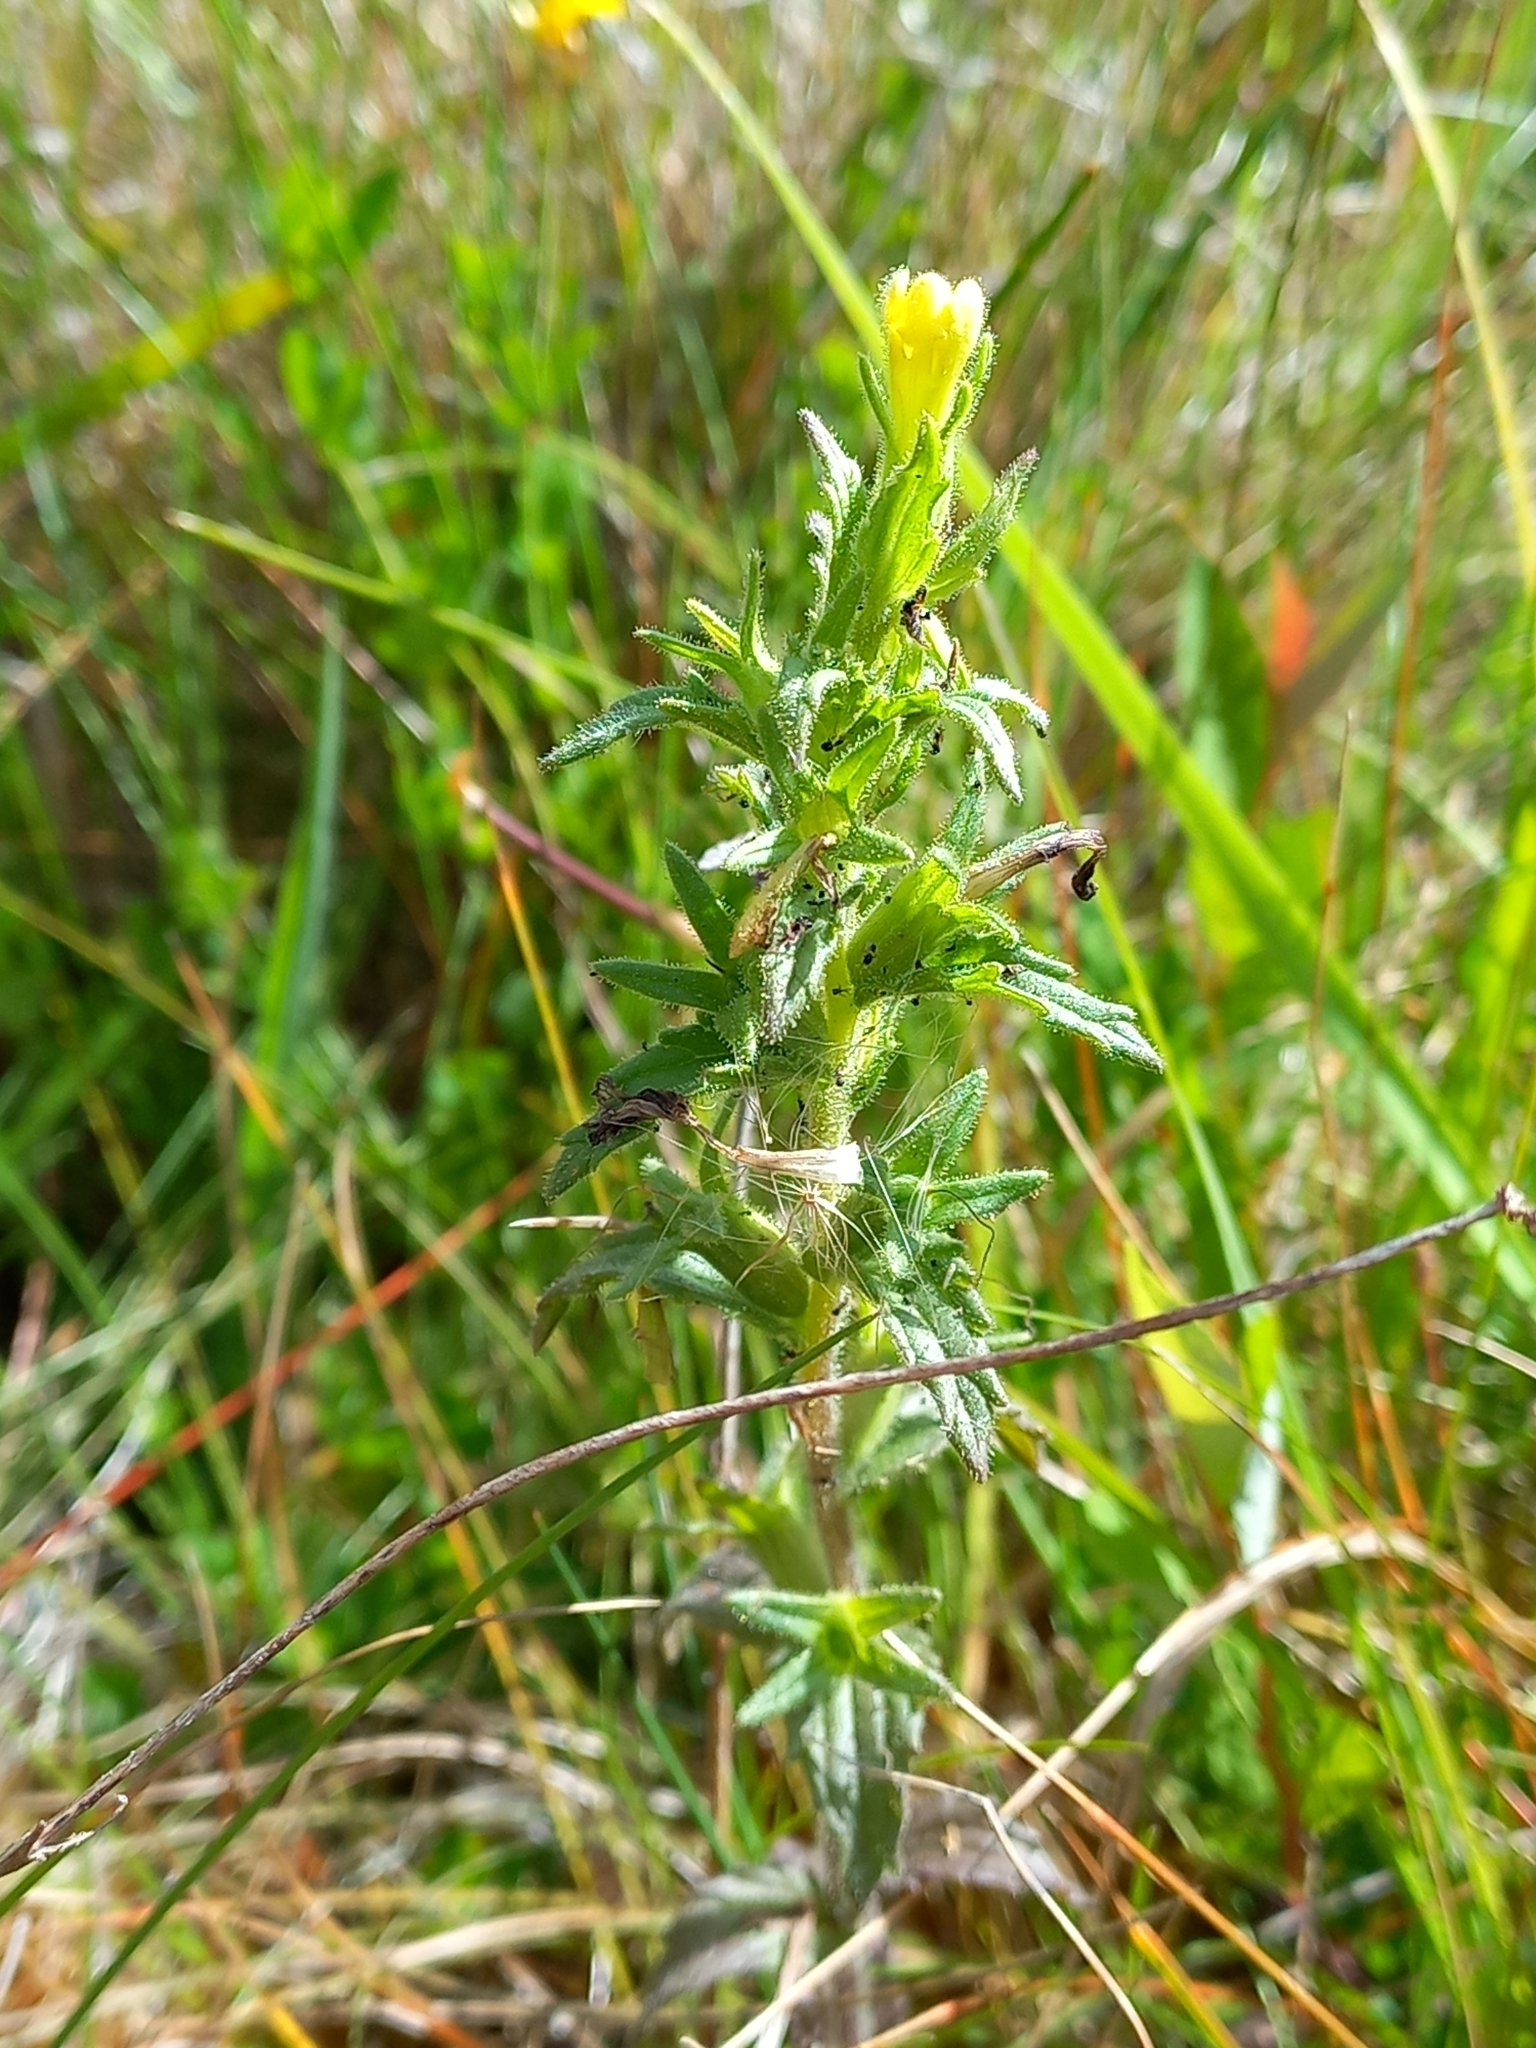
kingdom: Plantae
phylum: Tracheophyta
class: Magnoliopsida
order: Lamiales
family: Orobanchaceae
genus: Bellardia
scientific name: Bellardia viscosa
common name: Sticky parentucellia
